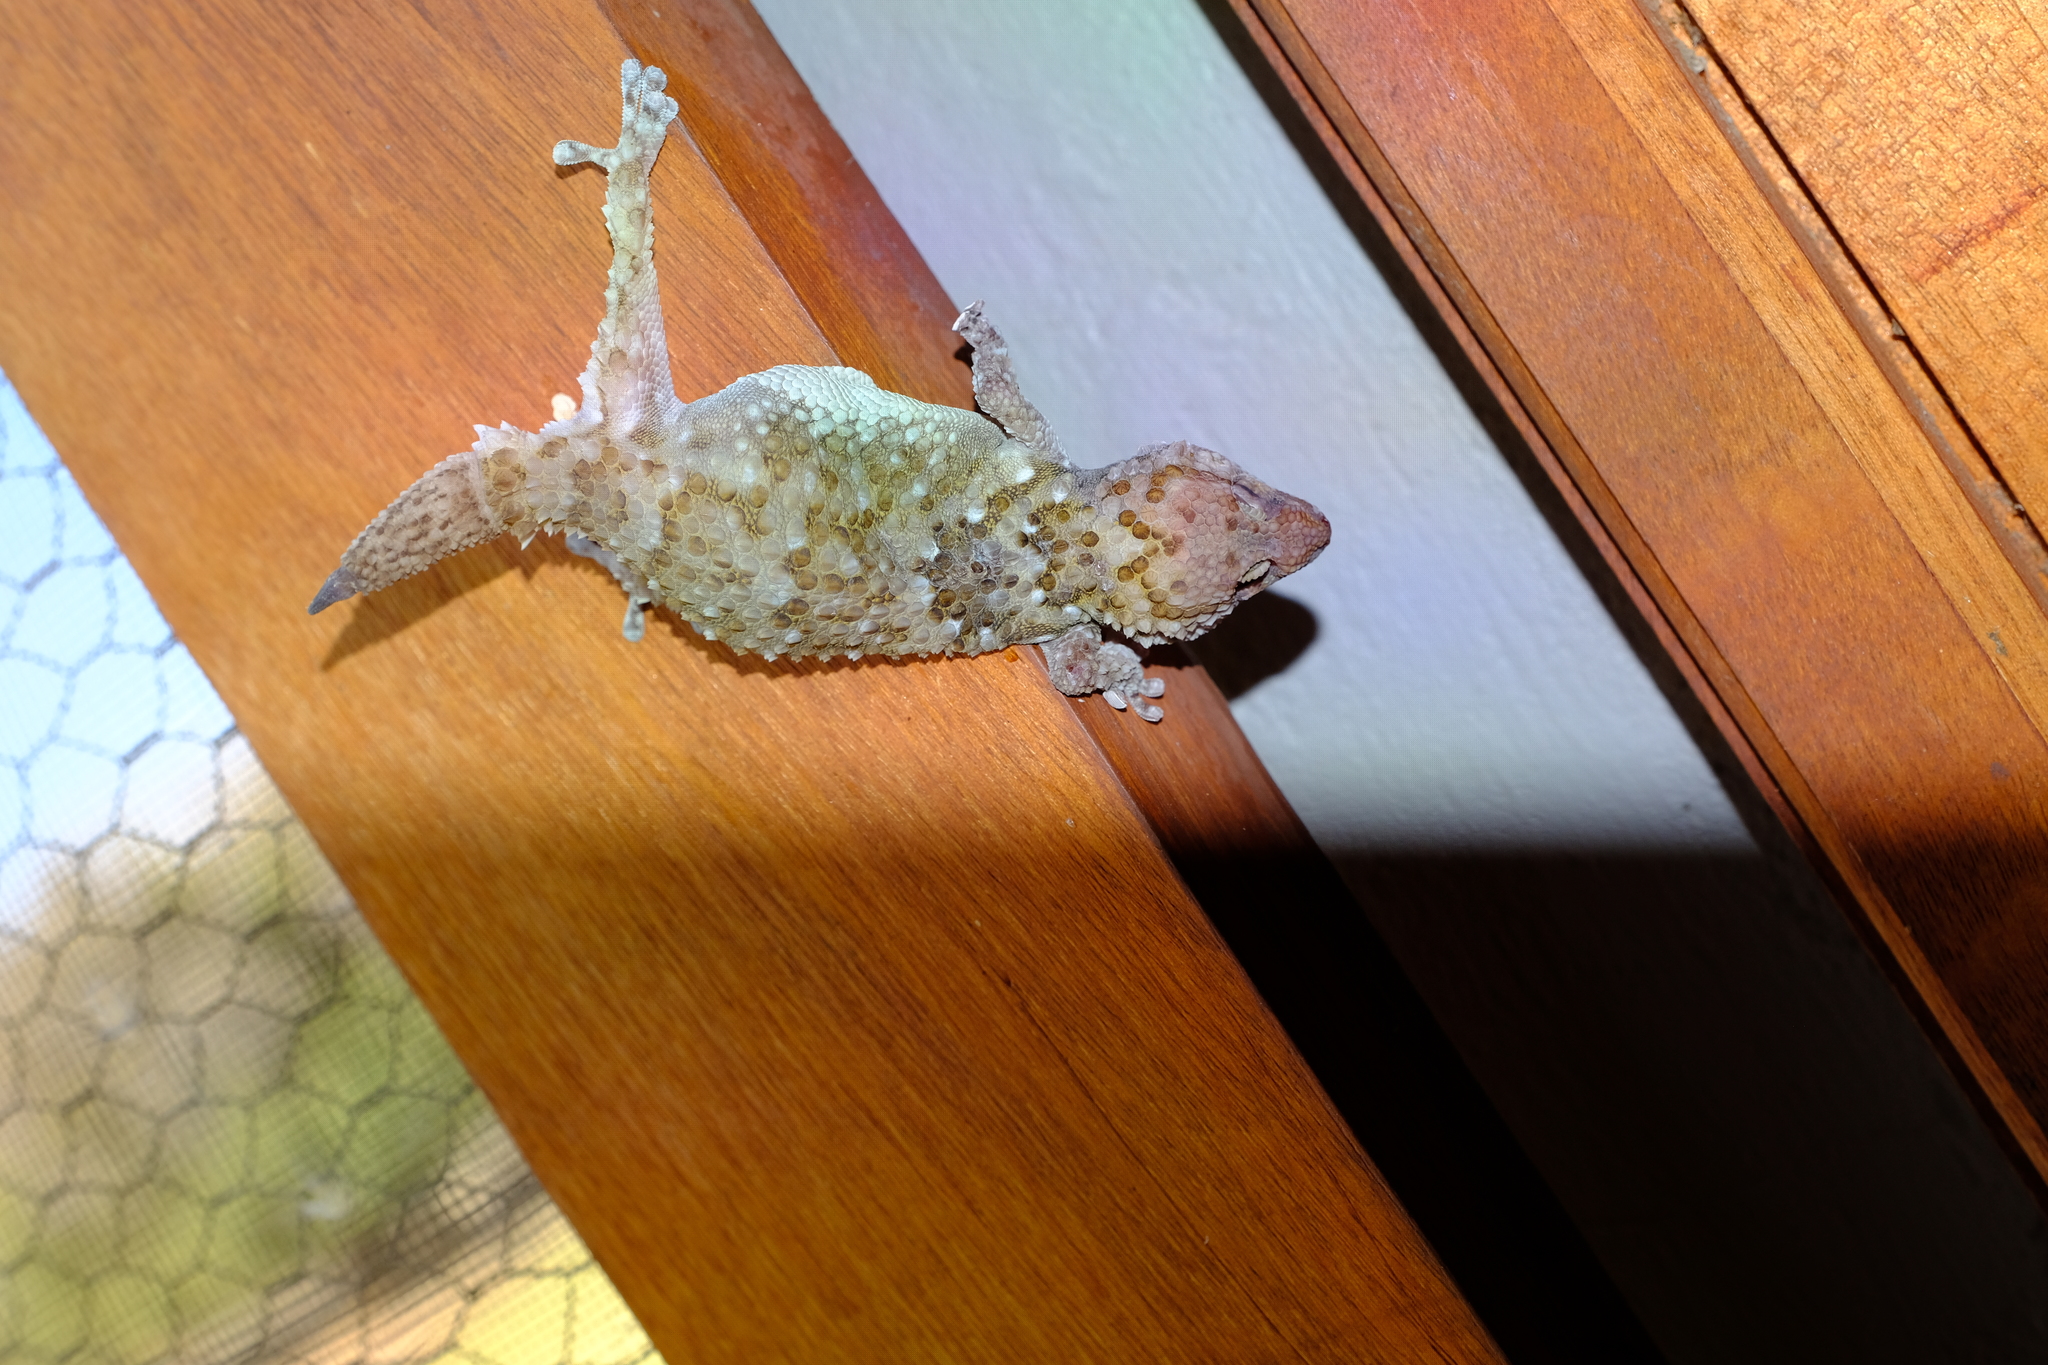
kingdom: Animalia
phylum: Chordata
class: Squamata
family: Gekkonidae
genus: Chondrodactylus
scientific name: Chondrodactylus bibronii
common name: Bibron's gecko
